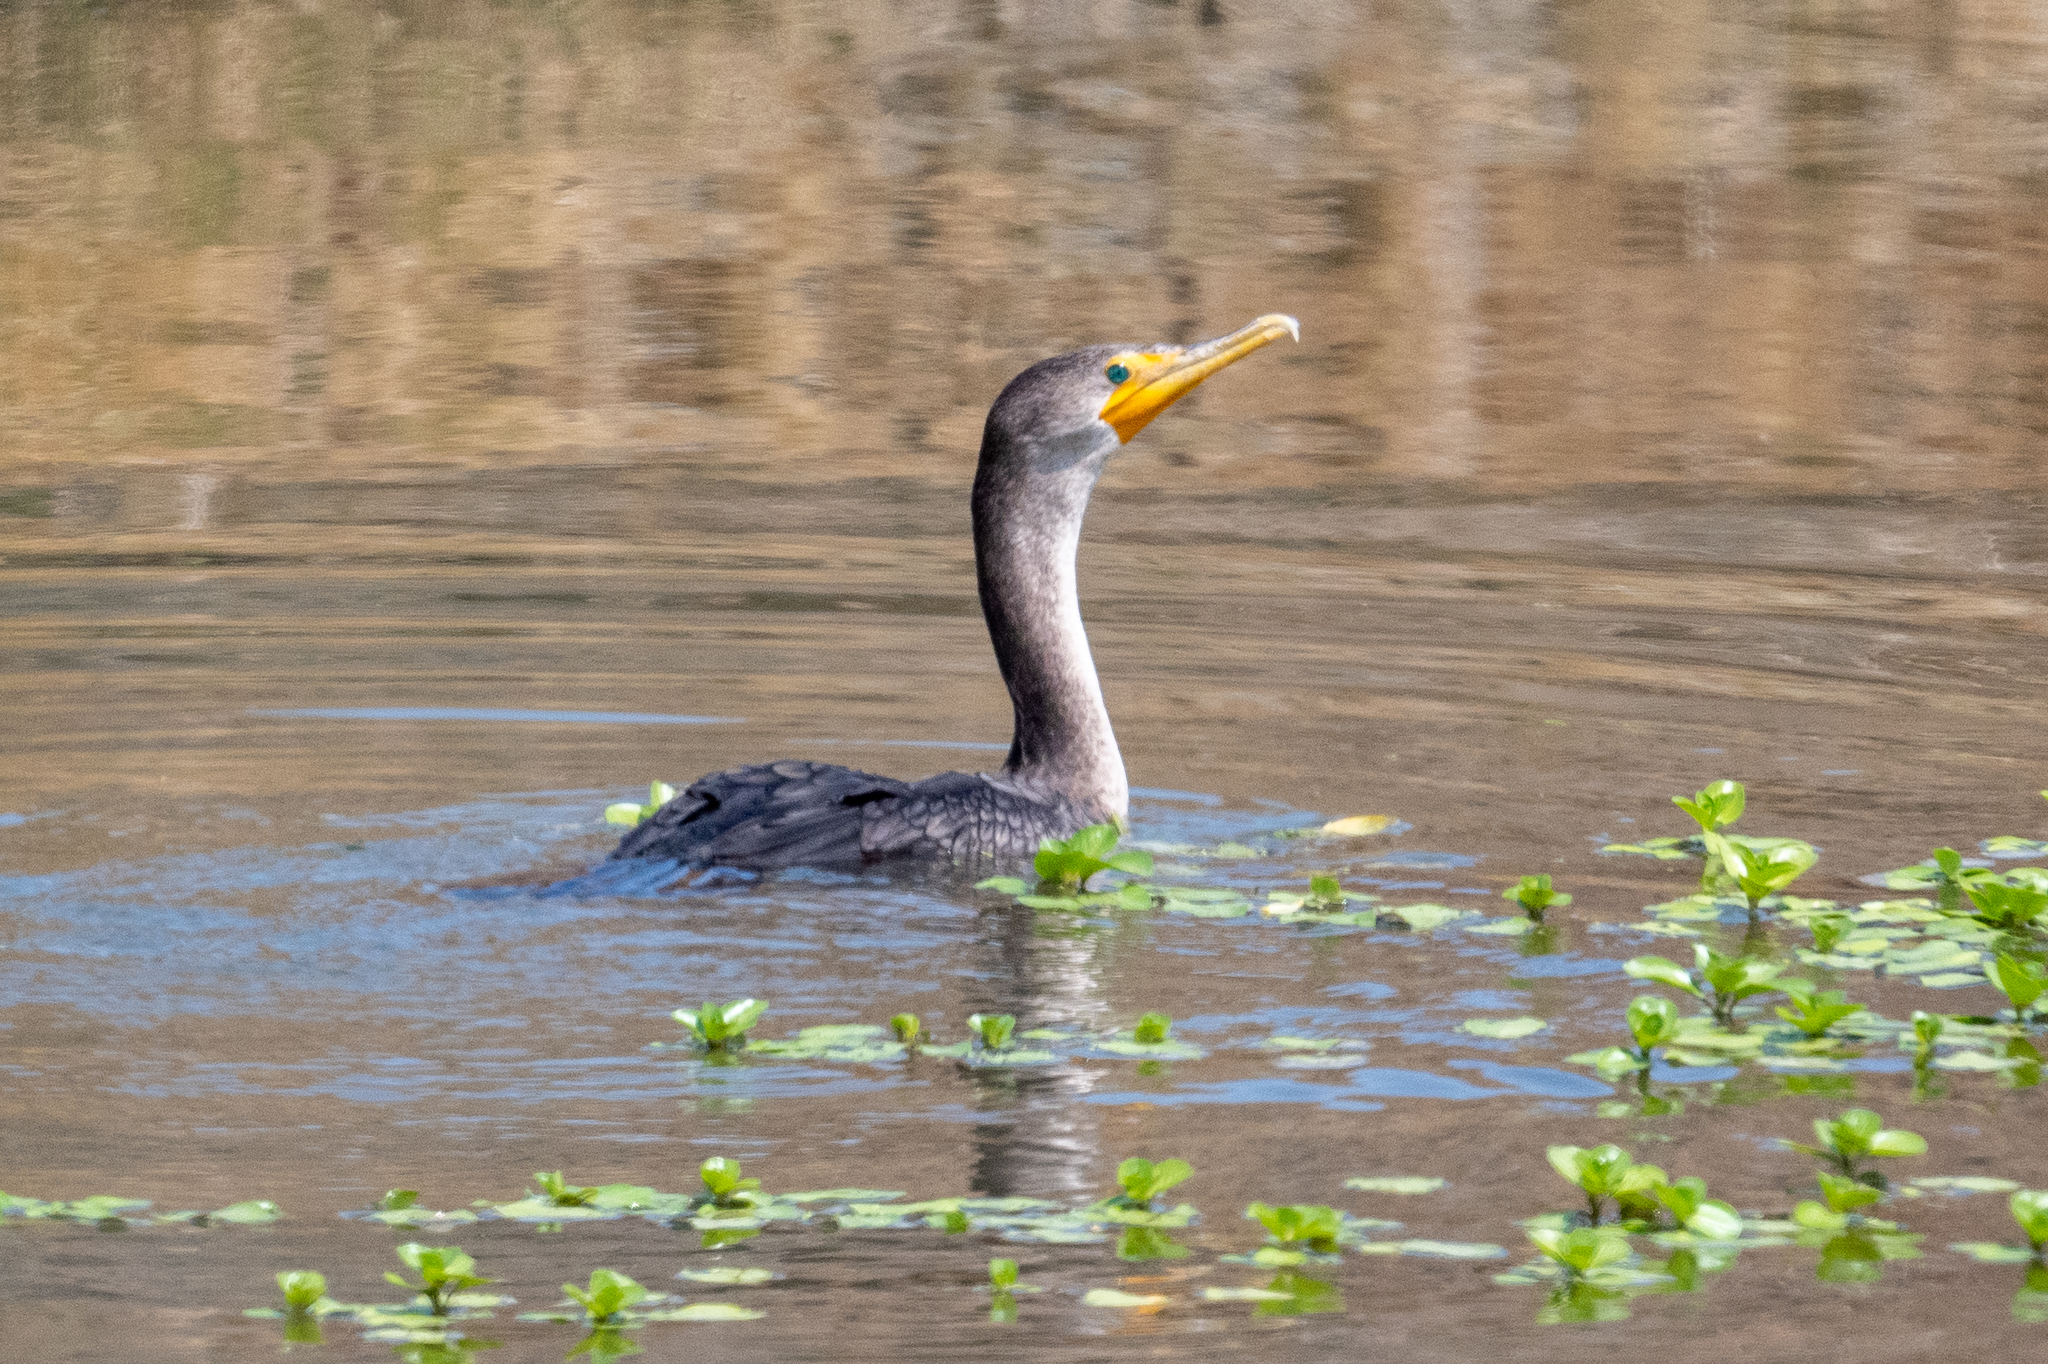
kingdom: Animalia
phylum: Chordata
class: Aves
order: Suliformes
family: Phalacrocoracidae
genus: Phalacrocorax
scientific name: Phalacrocorax auritus
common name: Double-crested cormorant
